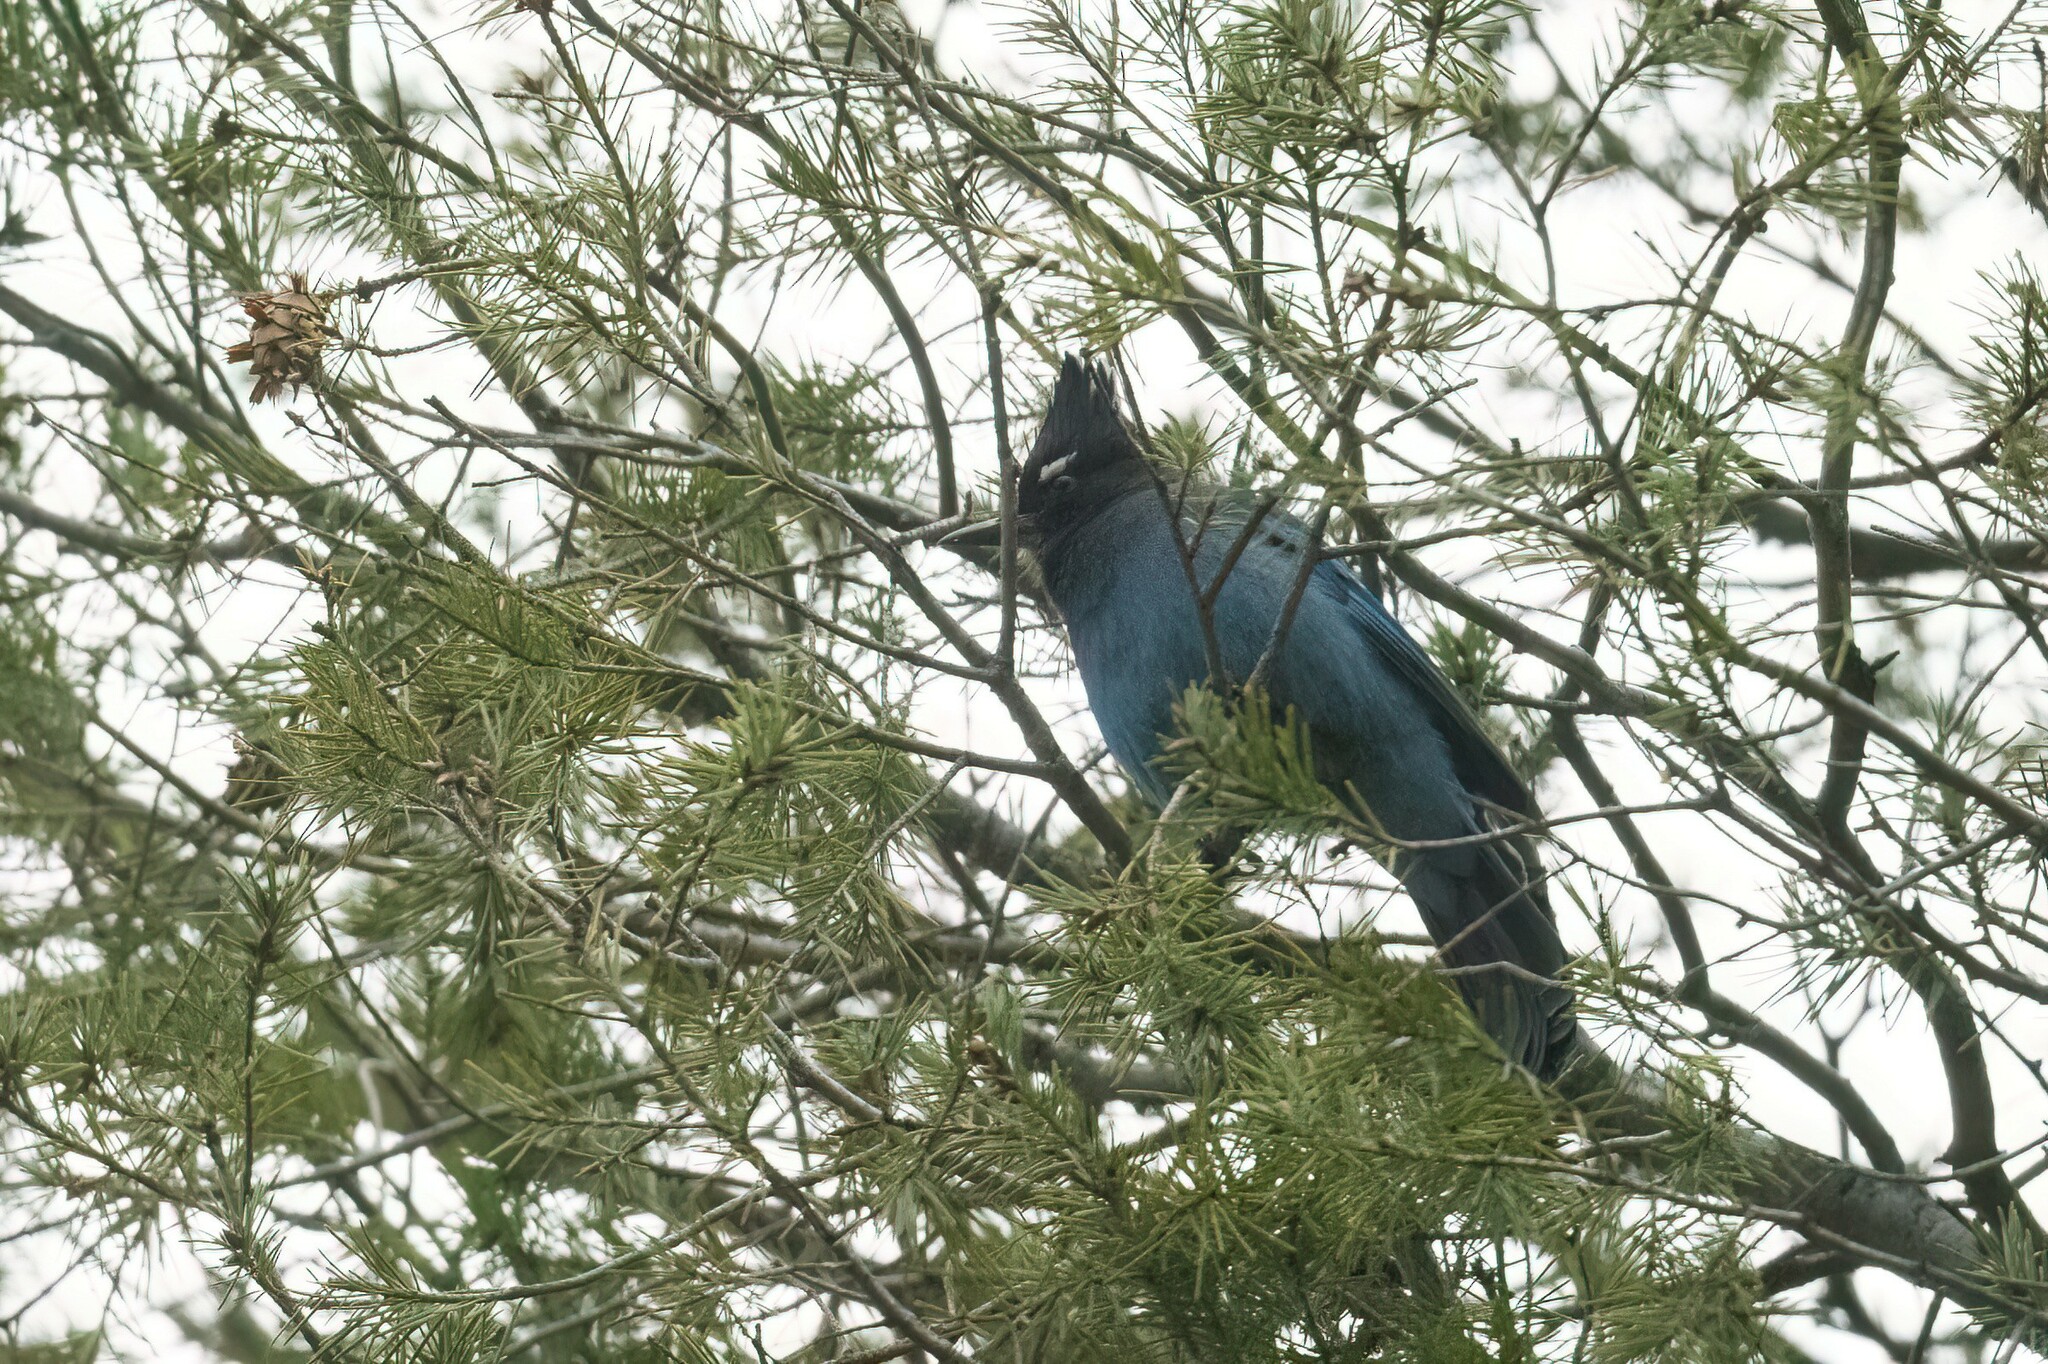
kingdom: Animalia
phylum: Chordata
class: Aves
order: Passeriformes
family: Corvidae
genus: Cyanocitta
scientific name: Cyanocitta stelleri
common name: Steller's jay
